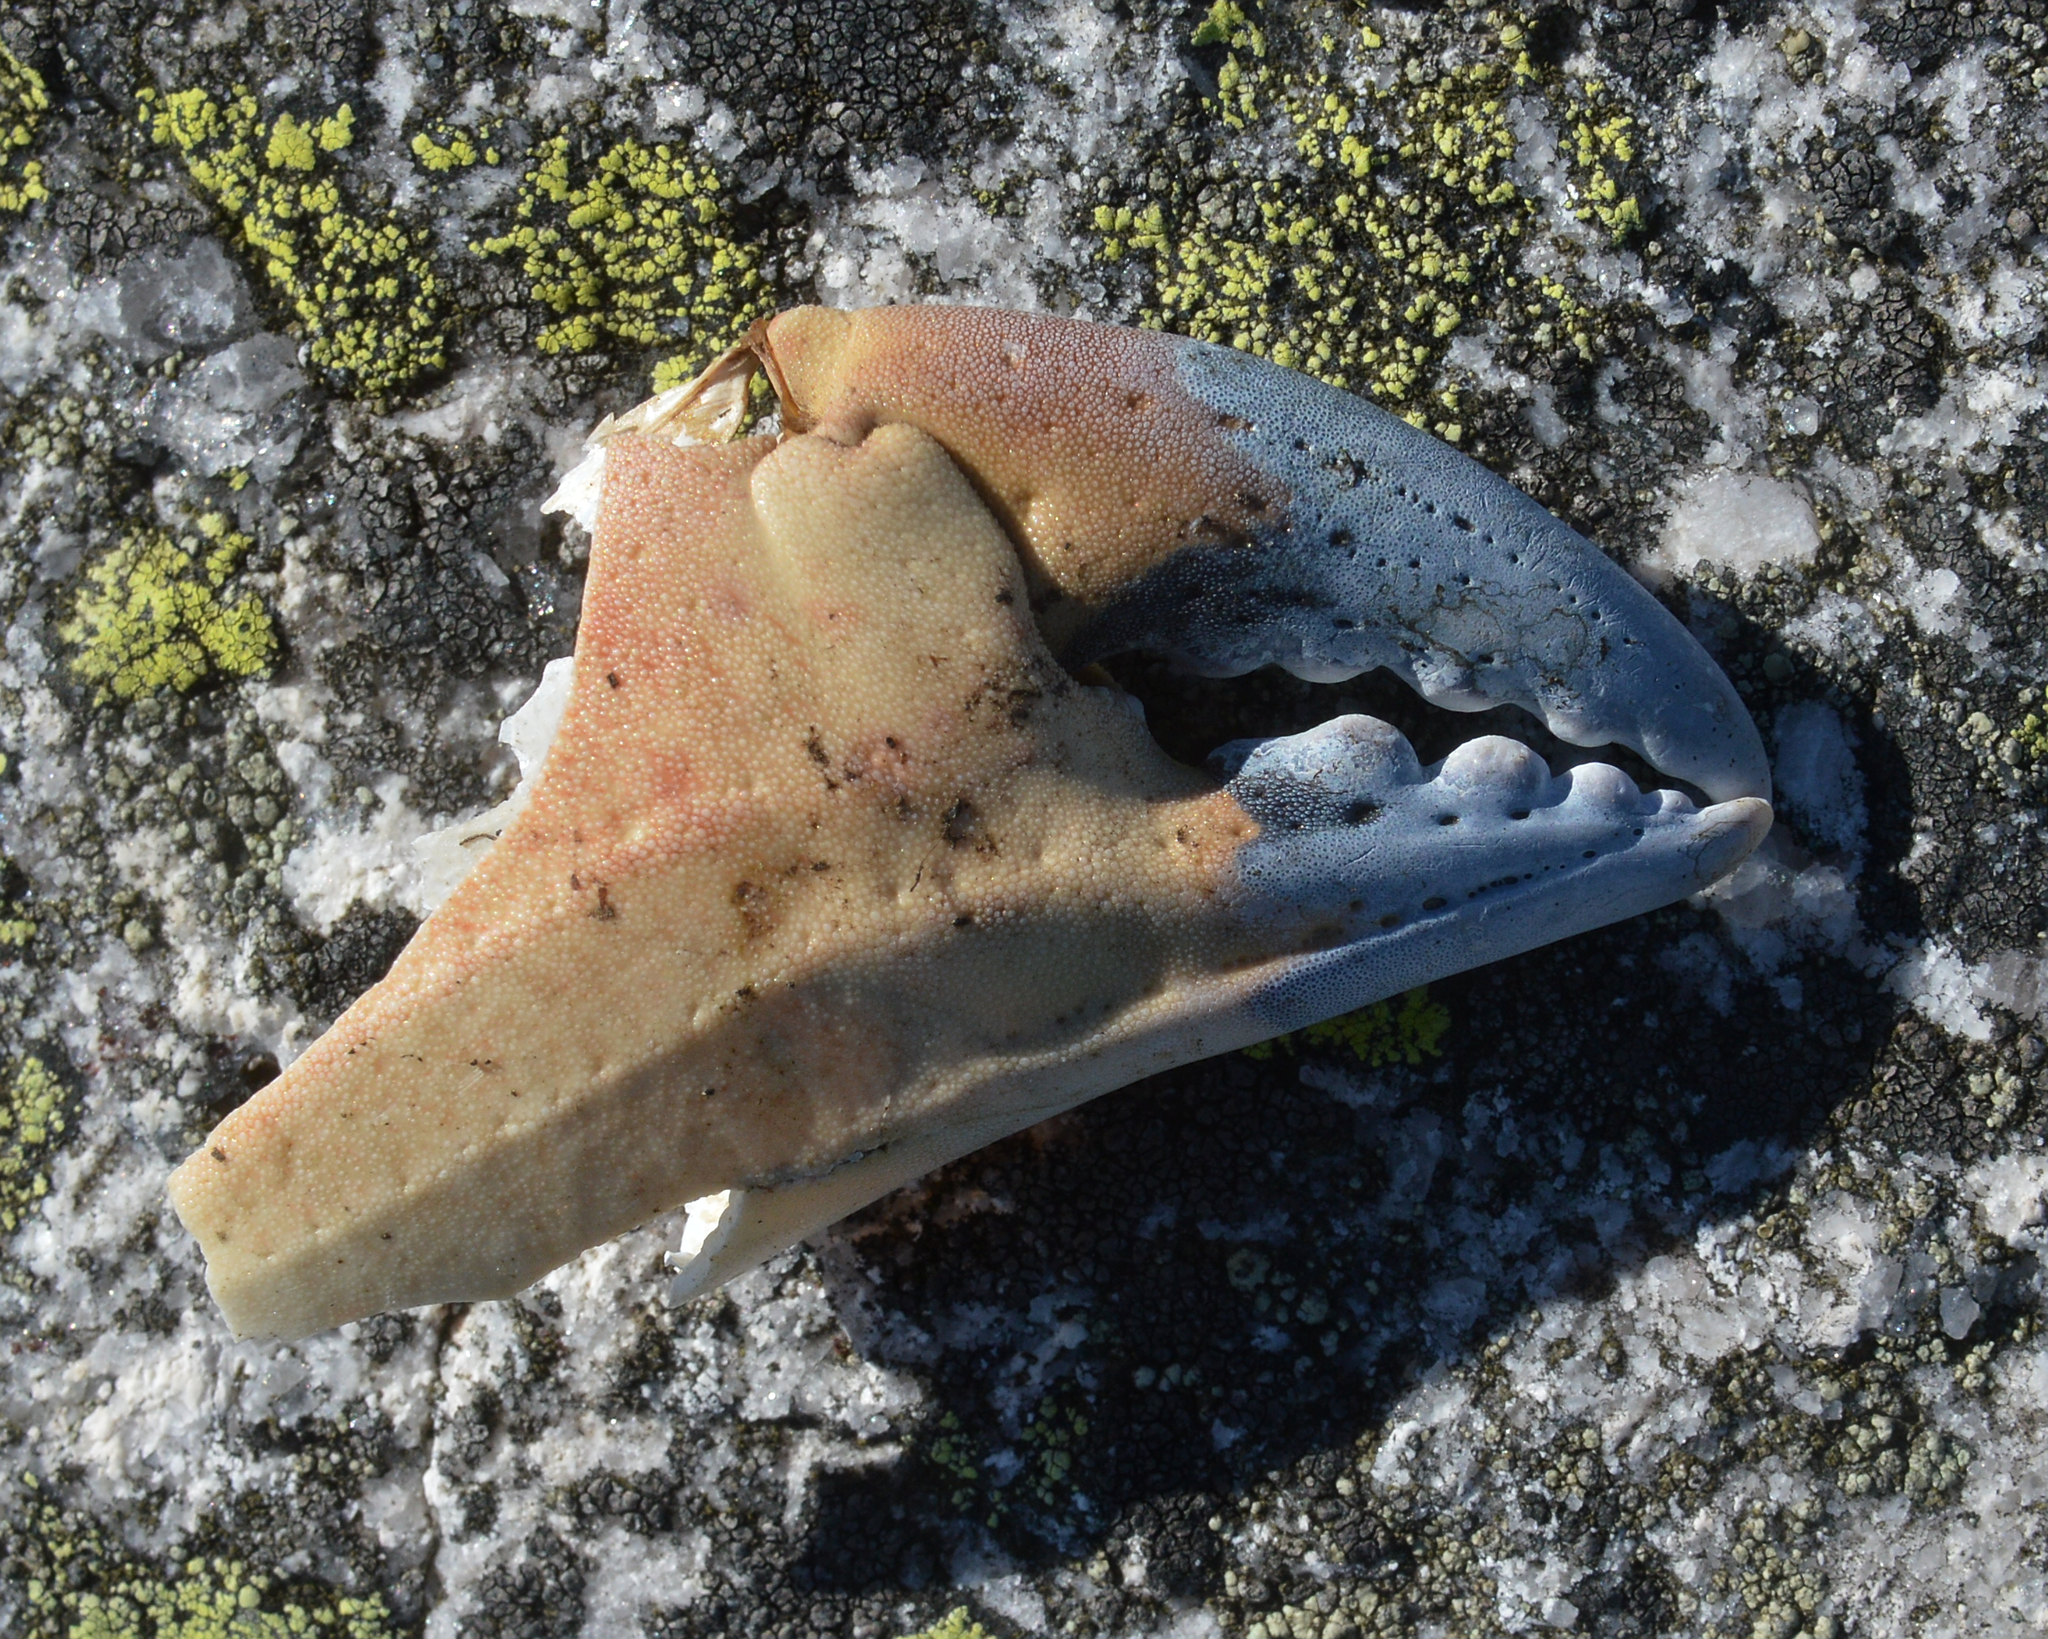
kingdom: Animalia
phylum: Arthropoda
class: Malacostraca
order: Decapoda
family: Cancridae
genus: Cancer
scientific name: Cancer pagurus
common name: Edible crab
